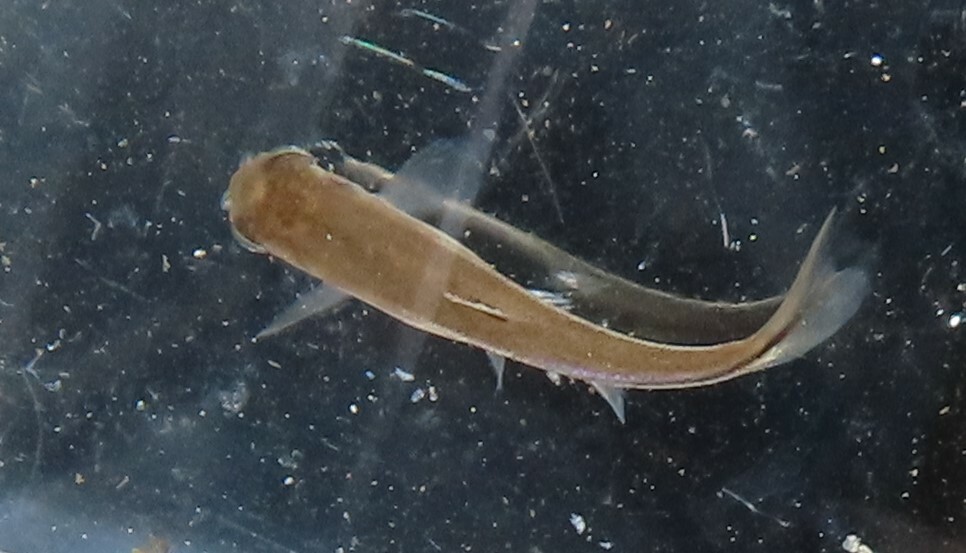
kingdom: Animalia
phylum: Chordata
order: Cypriniformes
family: Cyprinidae
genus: Rhinichthys
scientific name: Rhinichthys atratulus
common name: Eastern blacknose dace
